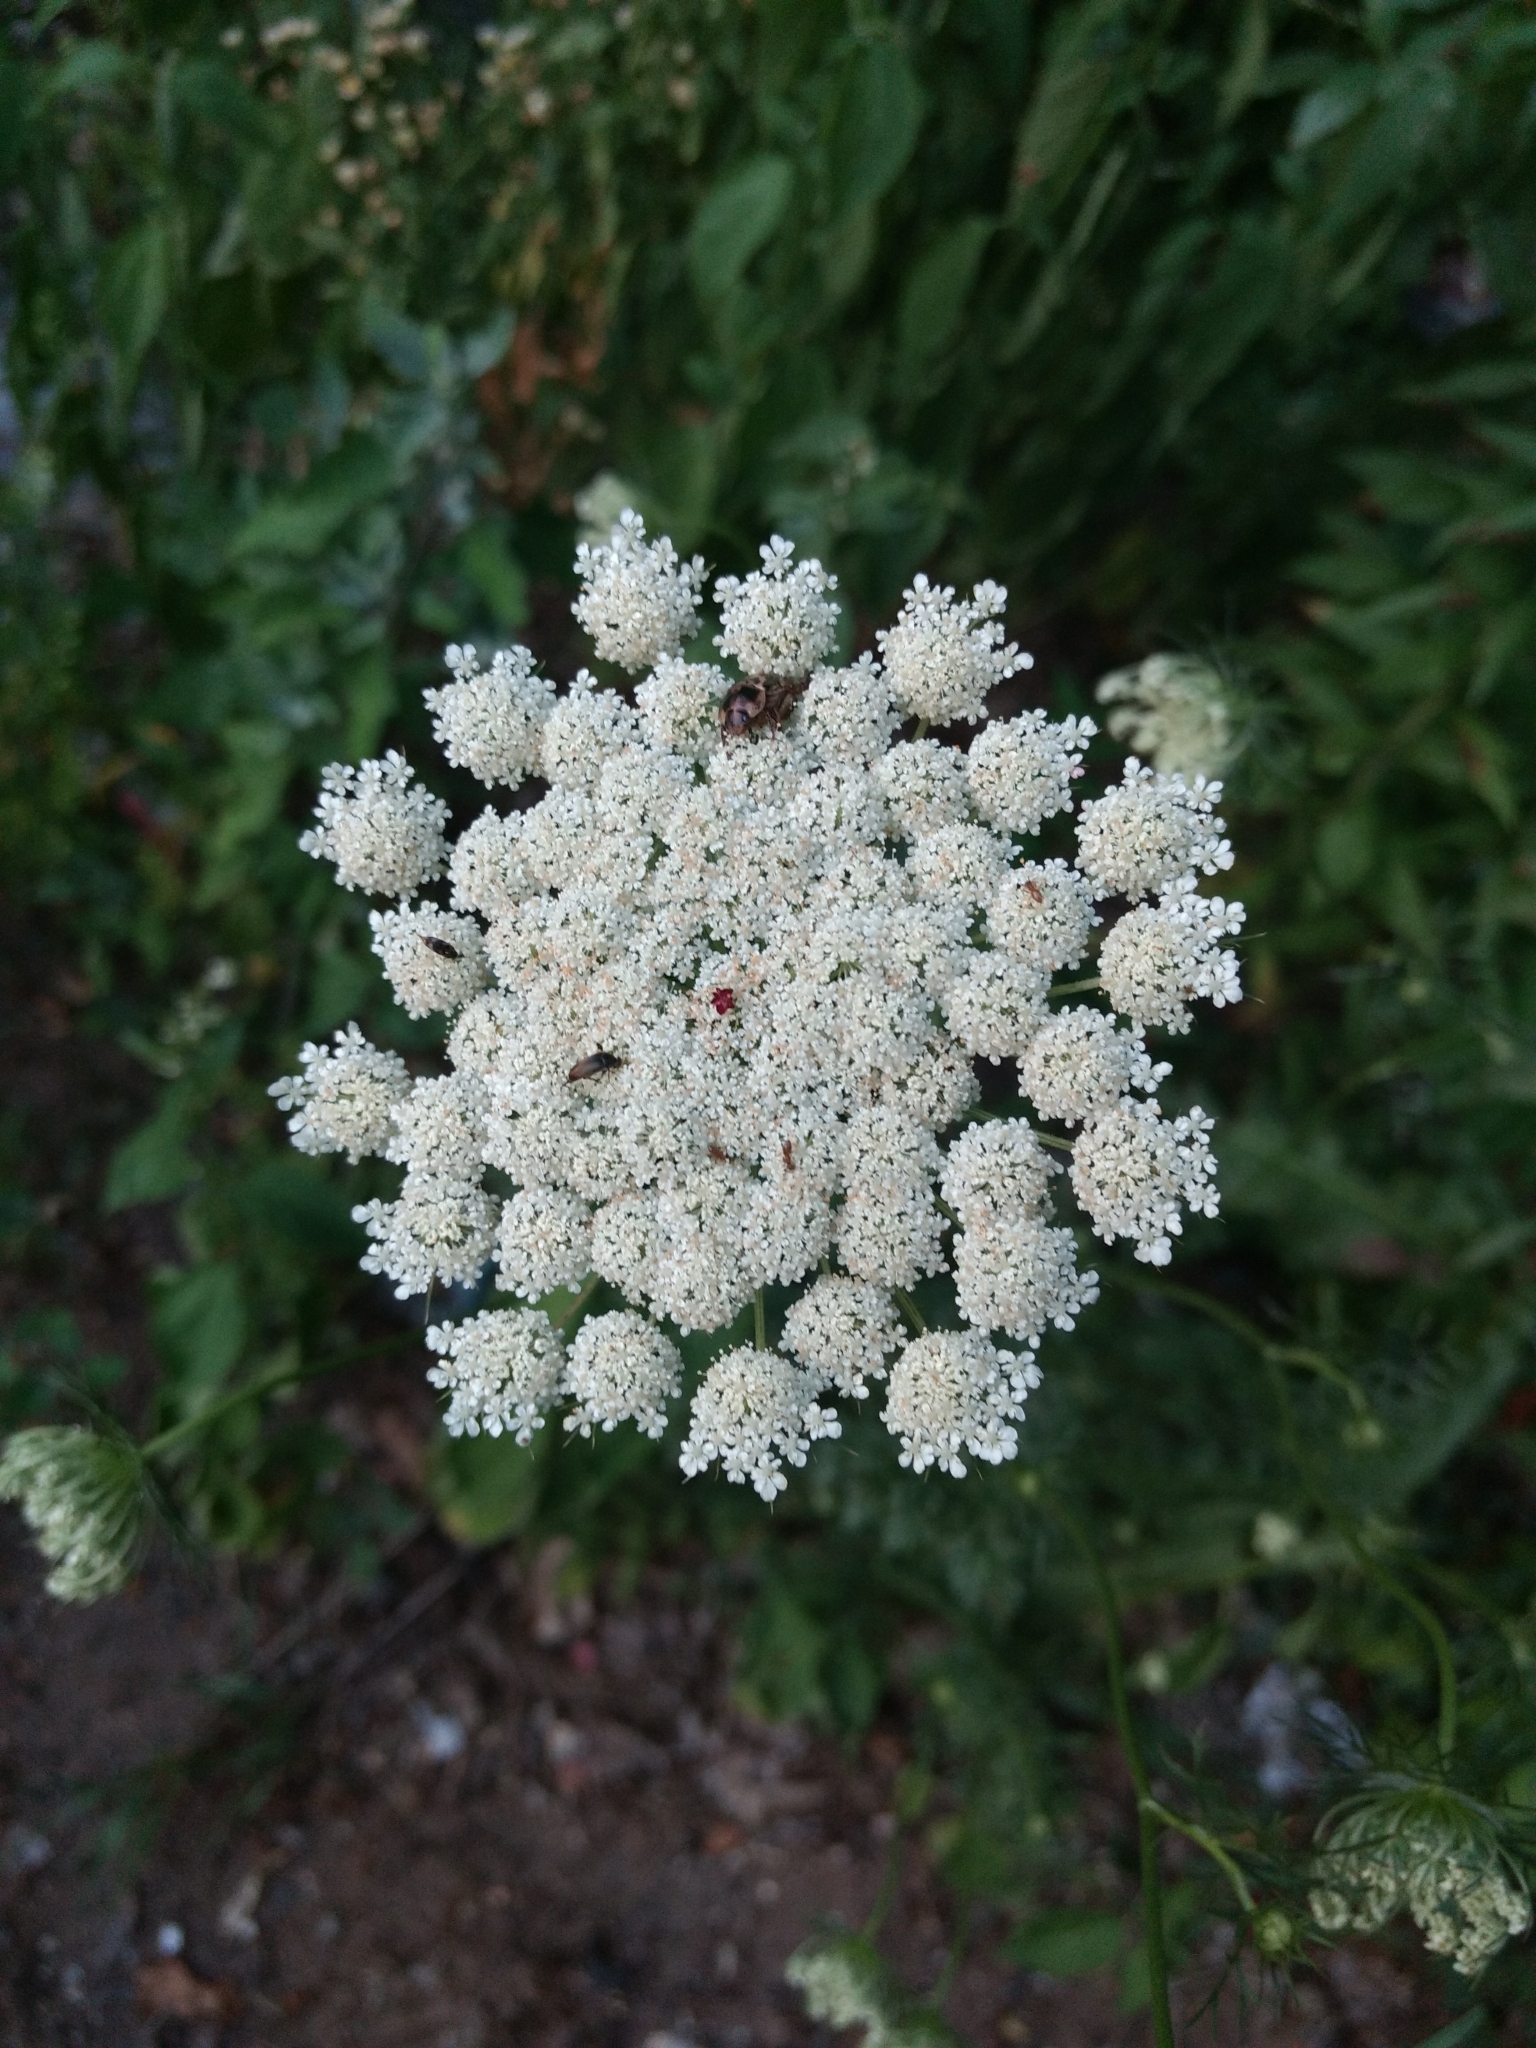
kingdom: Plantae
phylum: Tracheophyta
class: Magnoliopsida
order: Apiales
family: Apiaceae
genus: Daucus
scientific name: Daucus carota
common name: Wild carrot
